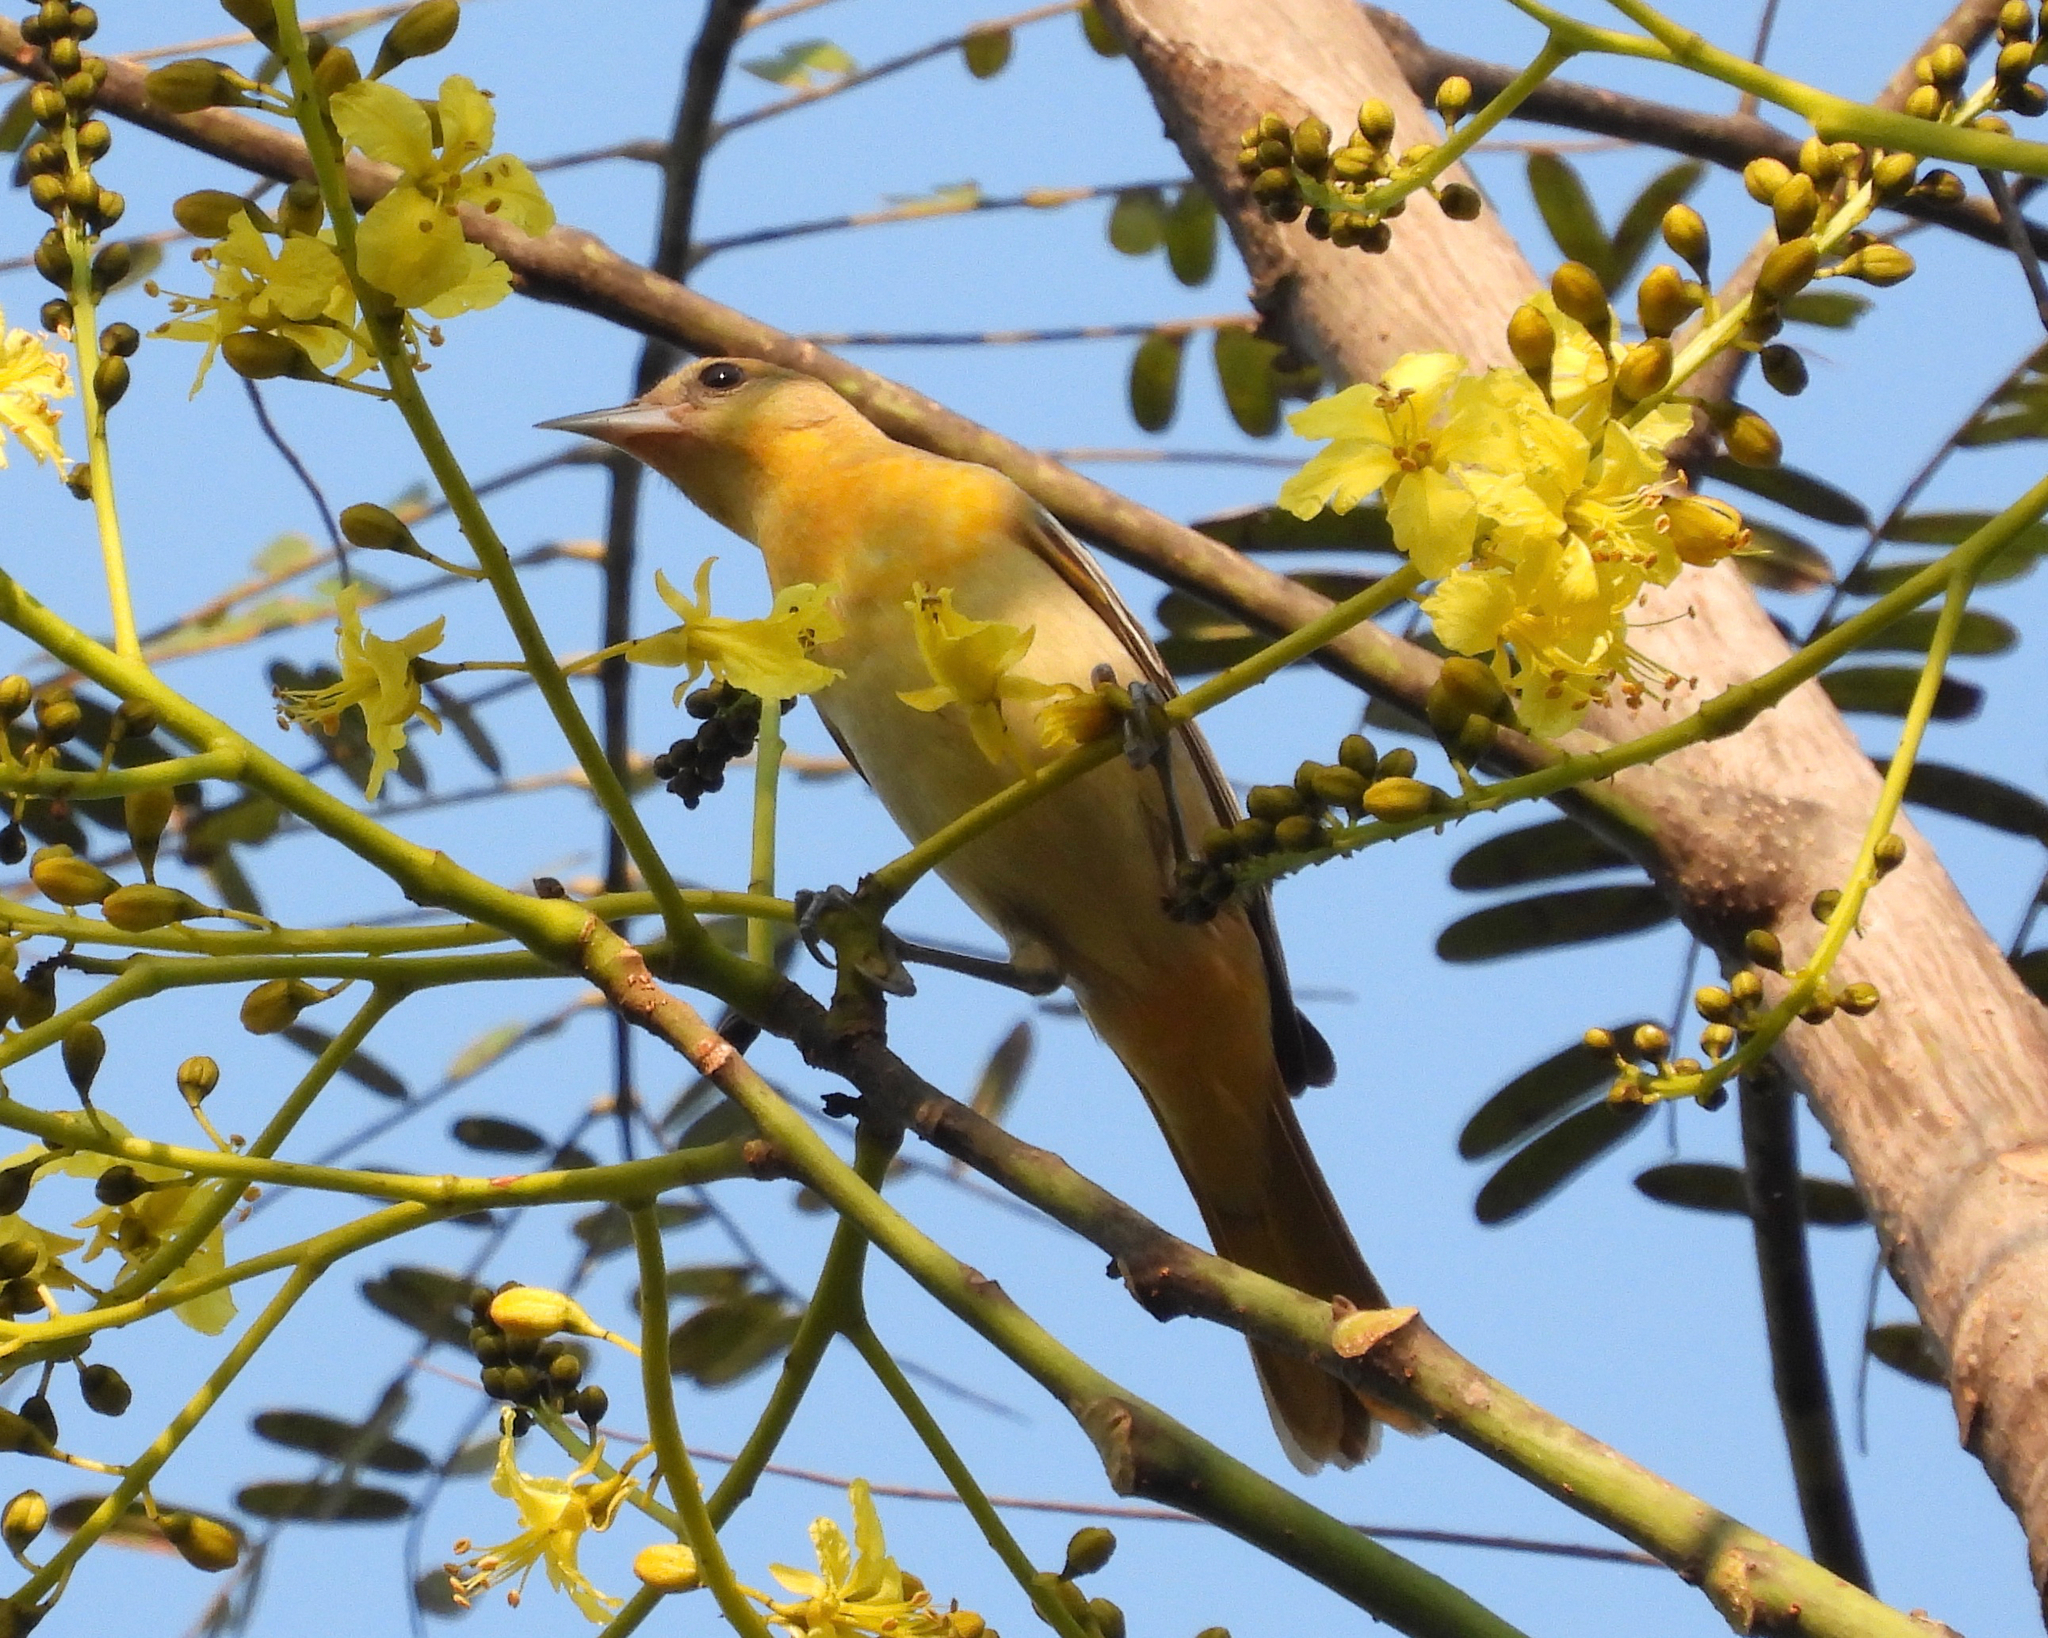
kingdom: Animalia
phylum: Chordata
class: Aves
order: Passeriformes
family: Icteridae
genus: Icterus
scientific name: Icterus galbula
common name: Baltimore oriole
